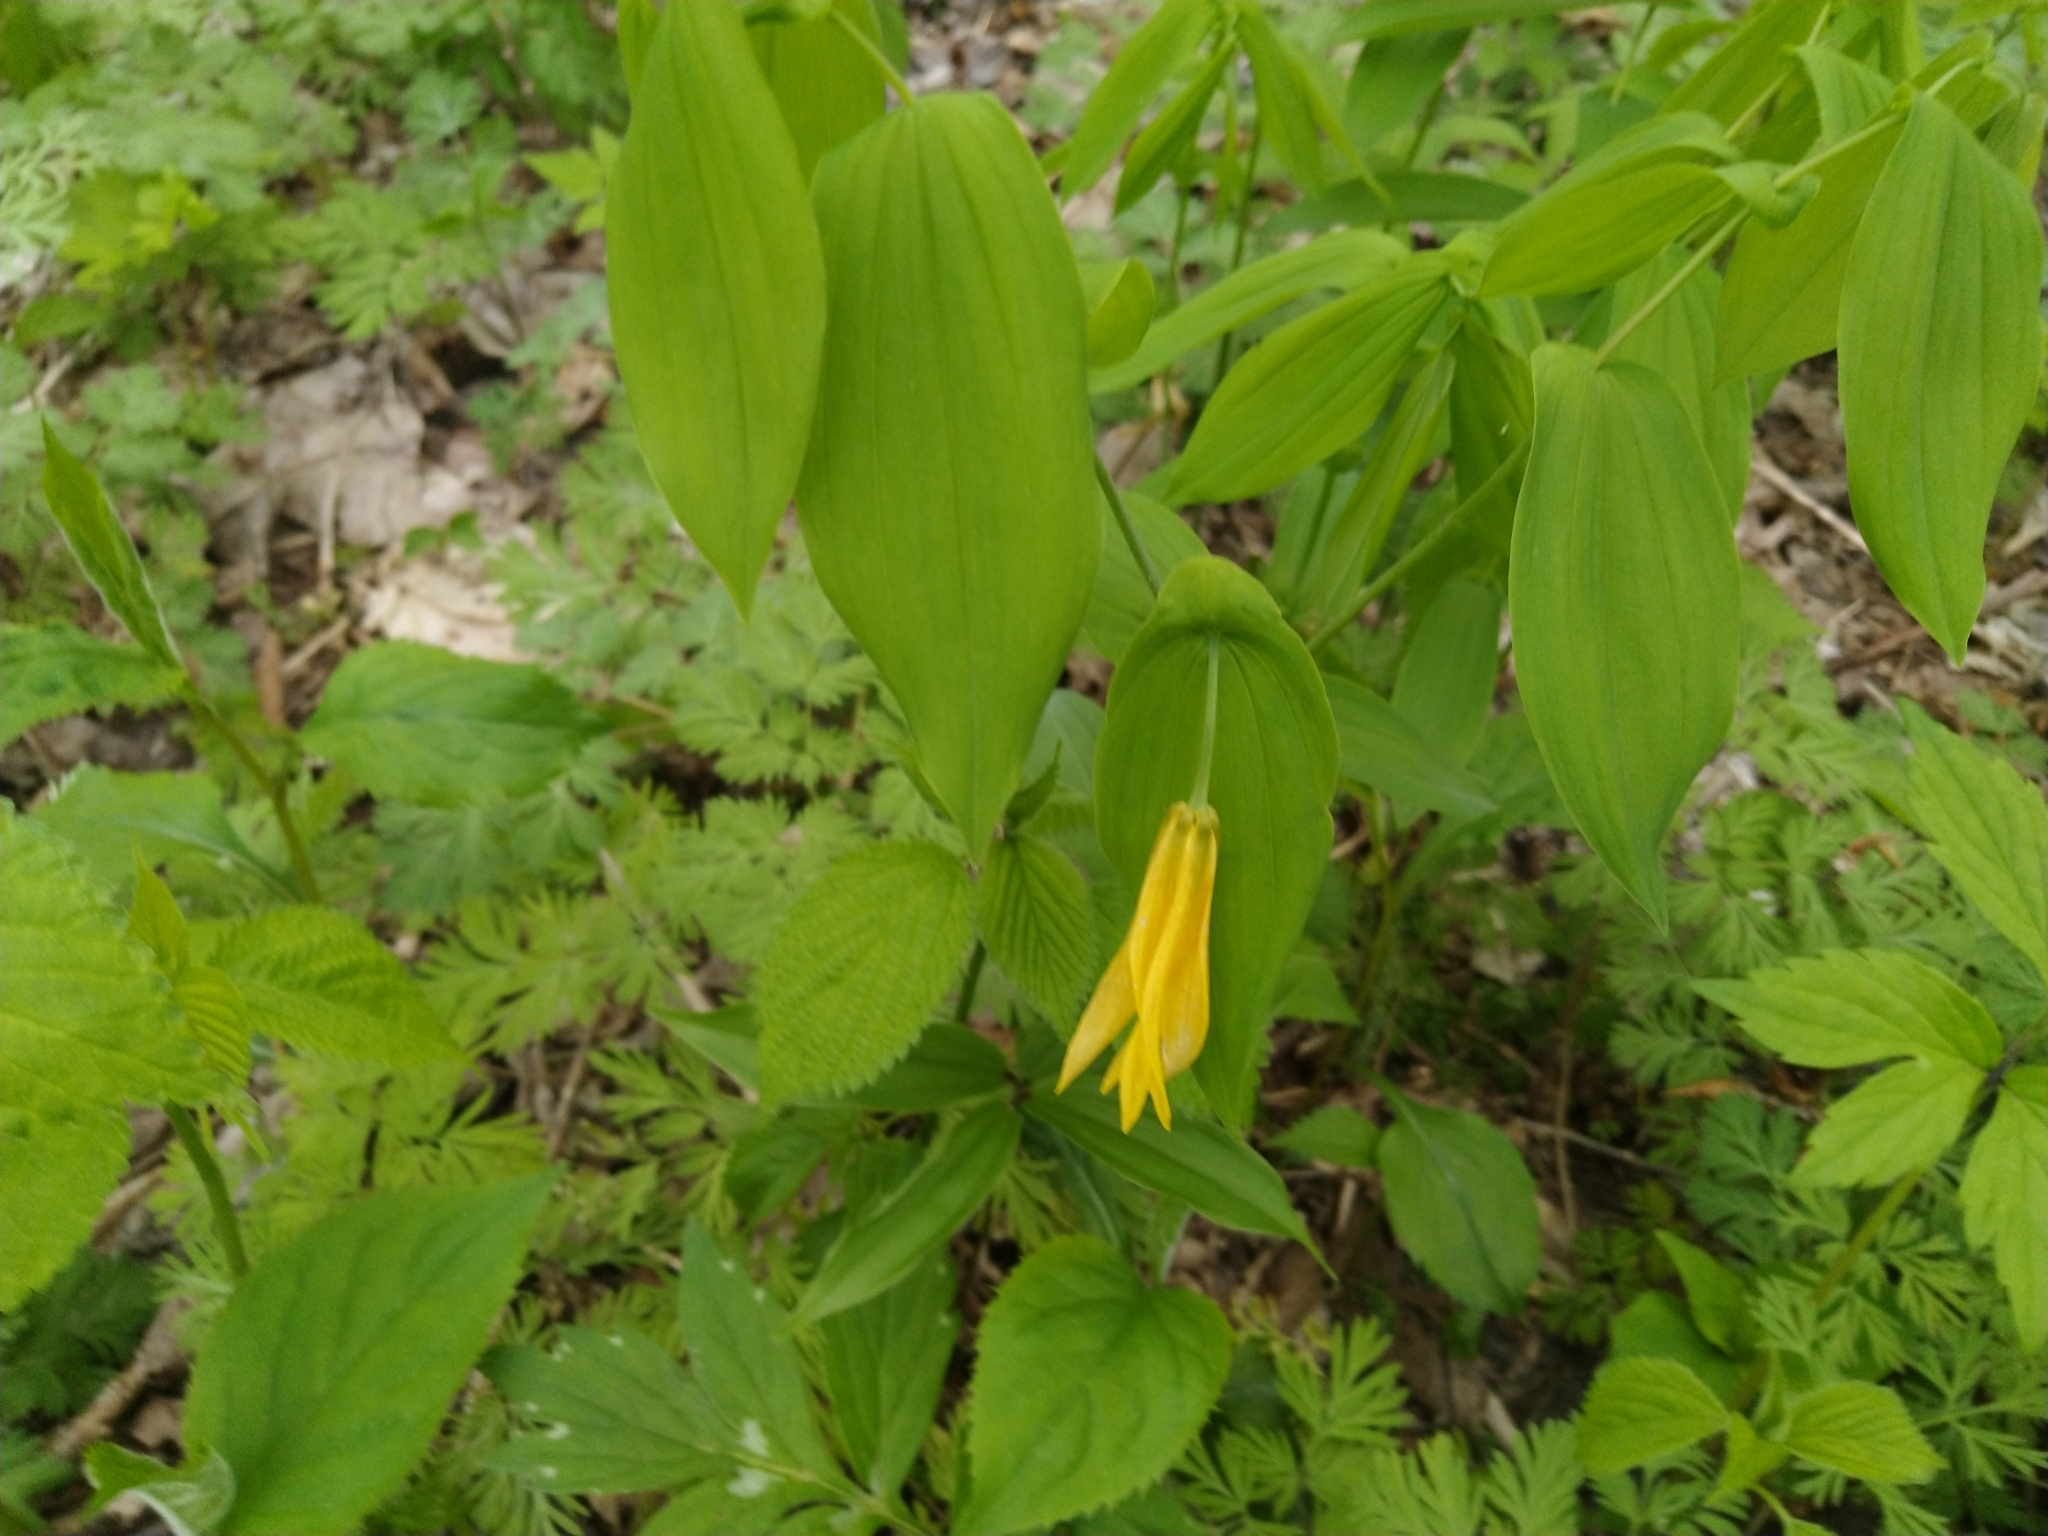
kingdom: Plantae
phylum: Tracheophyta
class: Liliopsida
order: Liliales
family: Colchicaceae
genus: Uvularia
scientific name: Uvularia grandiflora
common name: Bellwort
